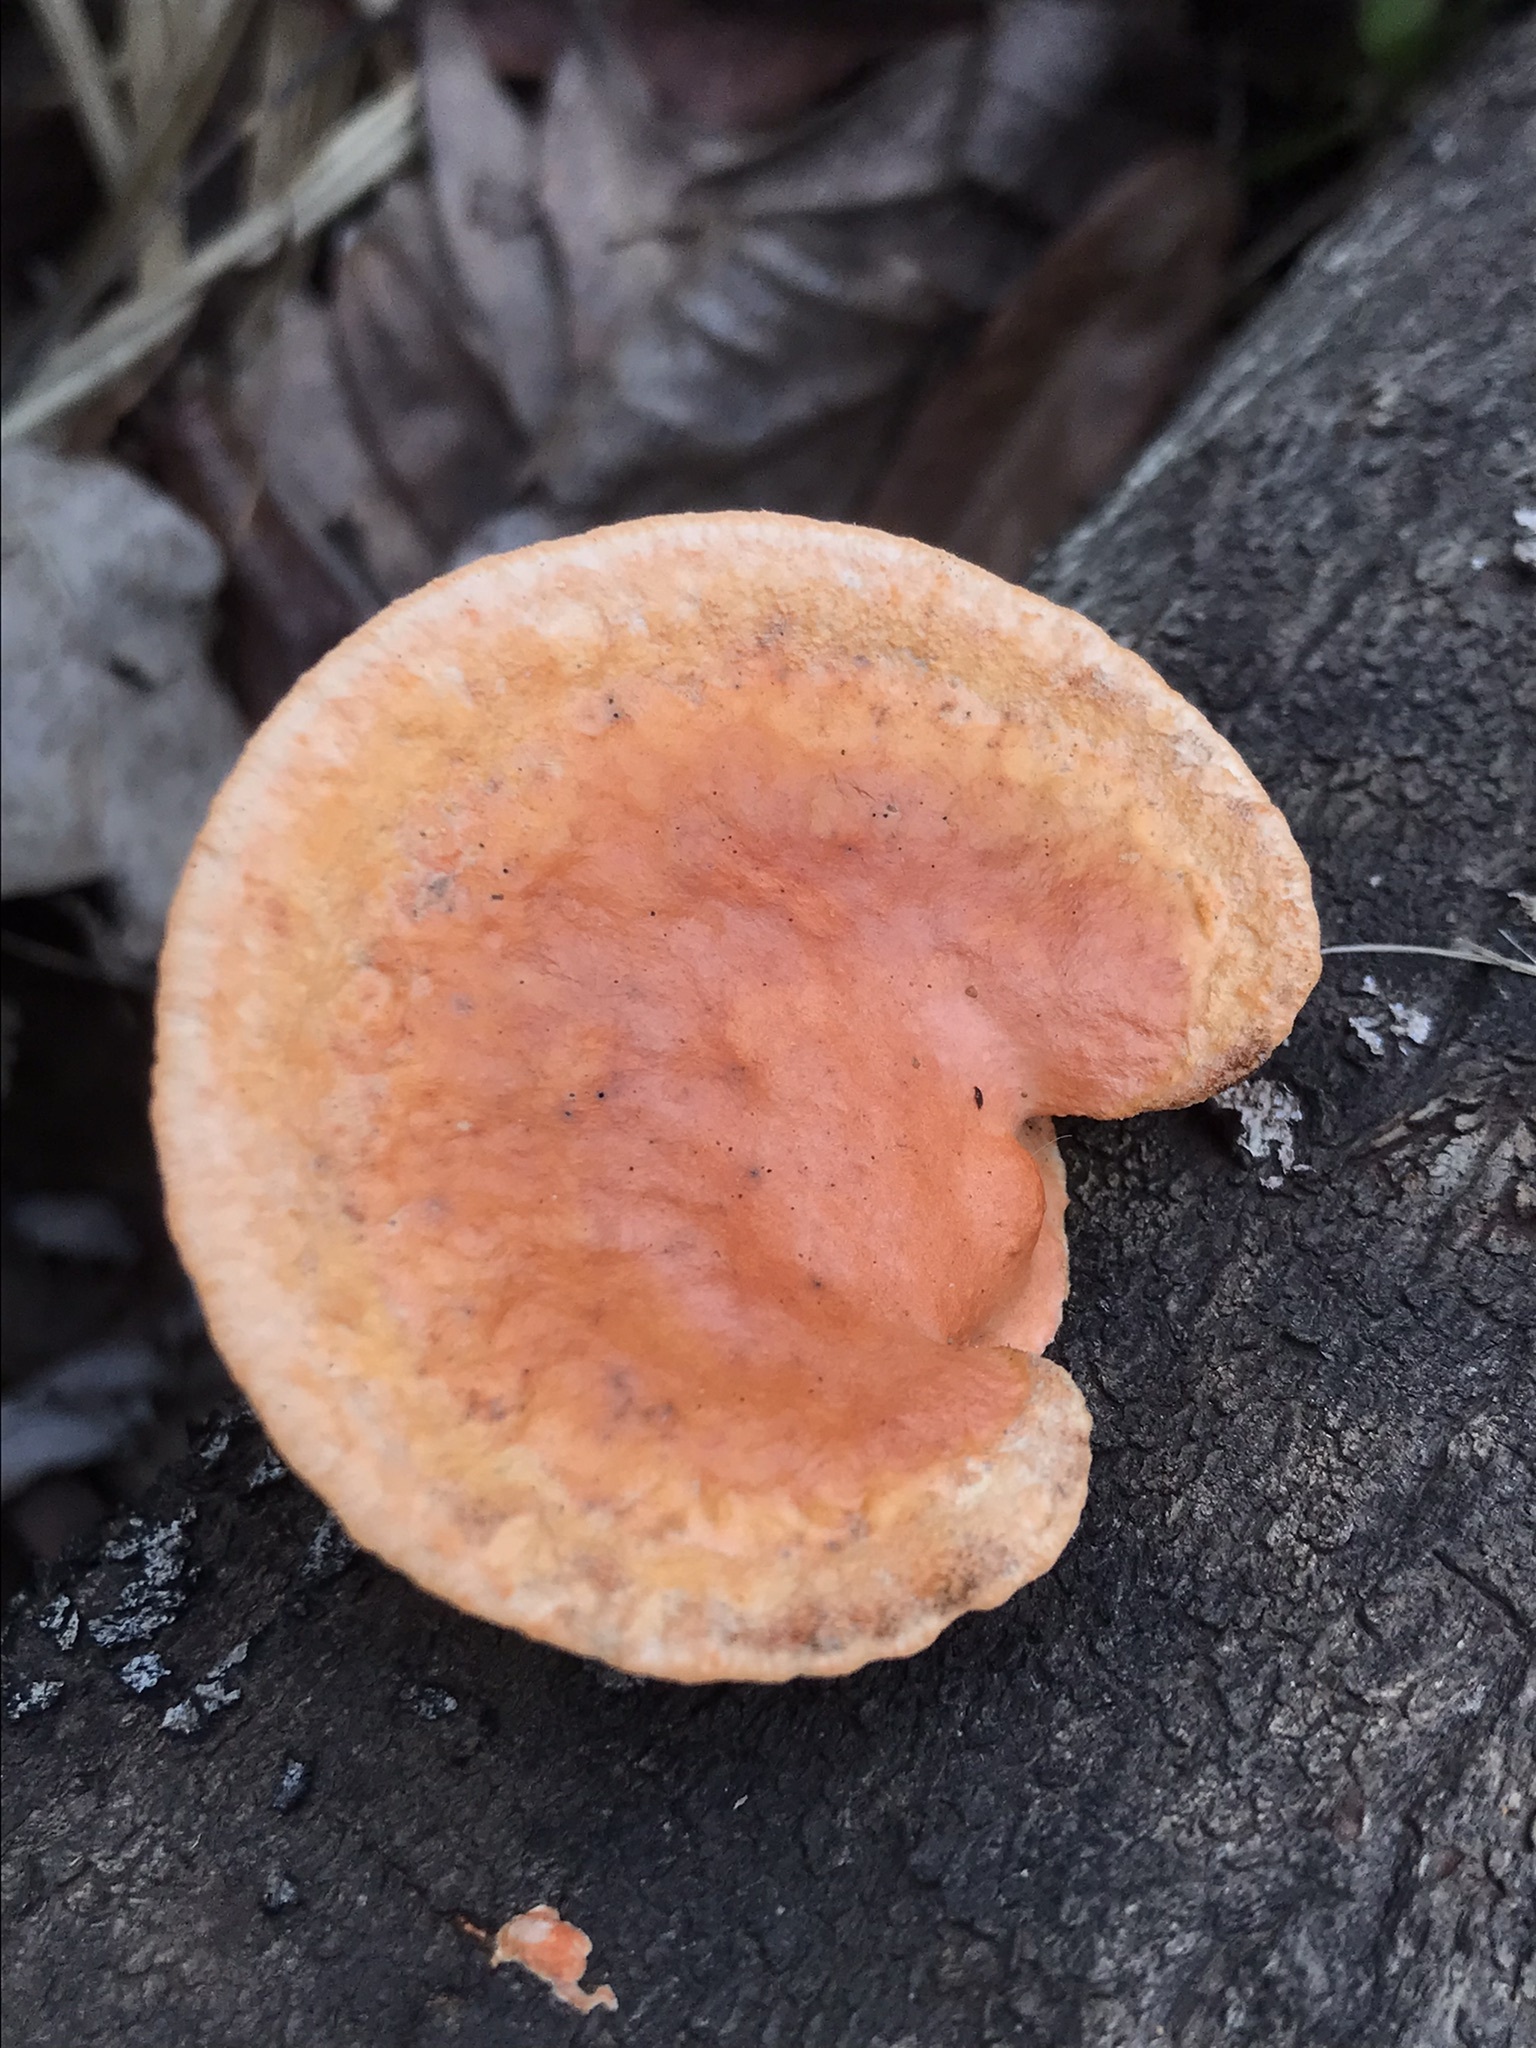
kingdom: Fungi
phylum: Basidiomycota
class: Agaricomycetes
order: Polyporales
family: Polyporaceae
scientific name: Polyporaceae
